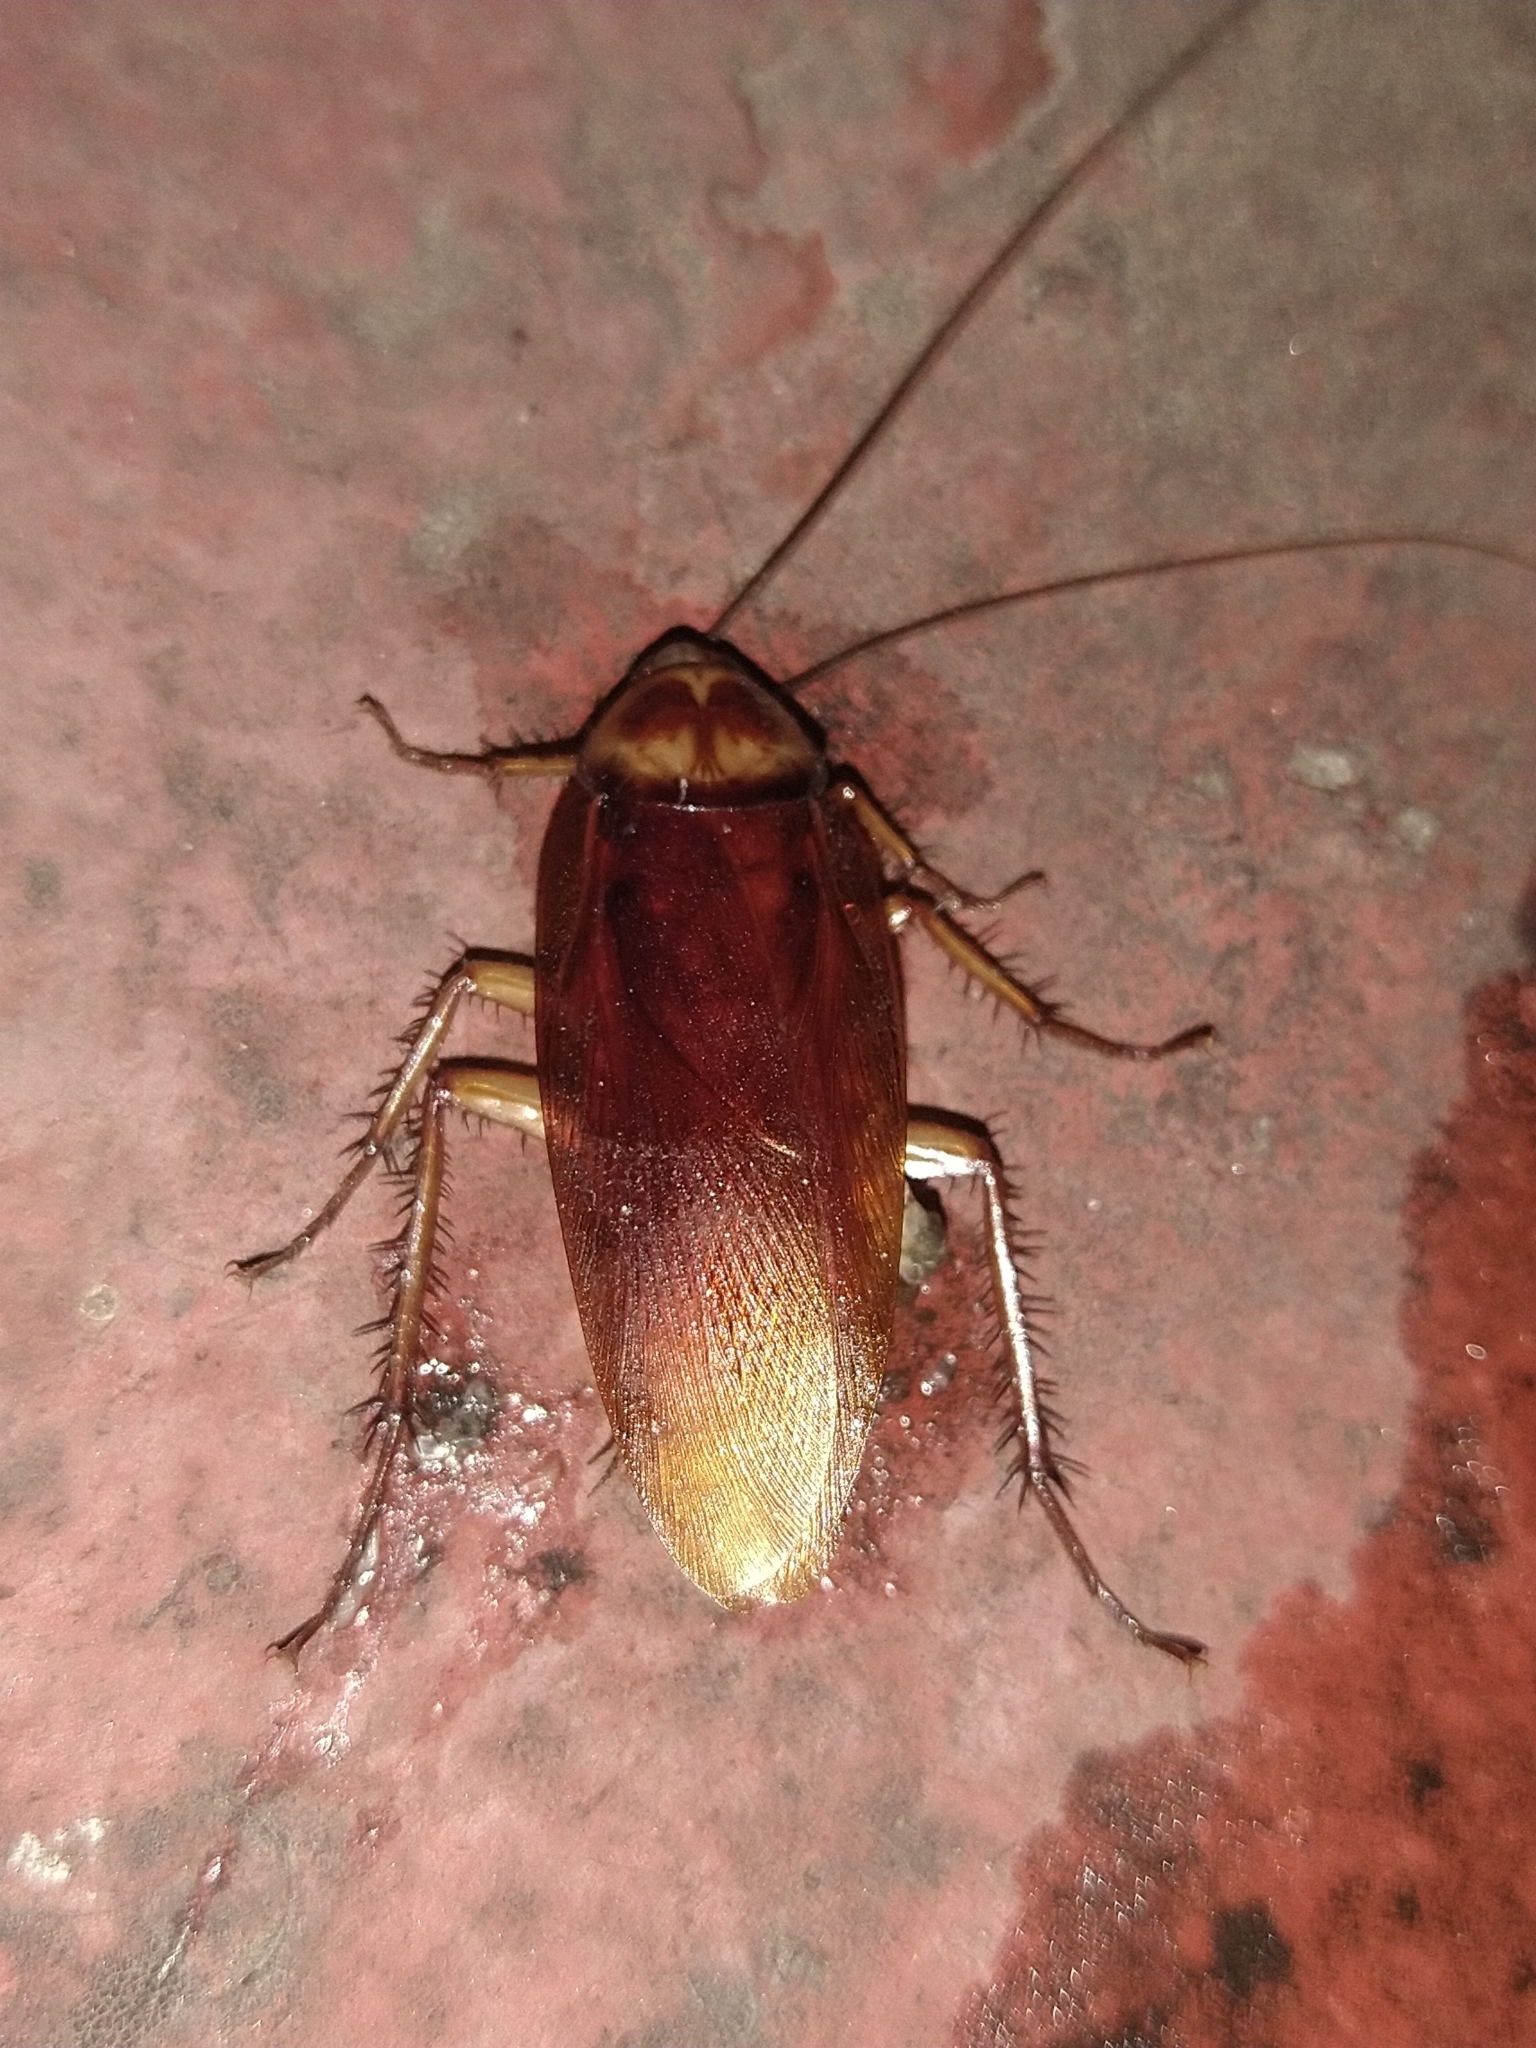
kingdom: Animalia
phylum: Arthropoda
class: Insecta
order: Blattodea
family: Blattidae
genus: Periplaneta
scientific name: Periplaneta americana
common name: American cockroach
